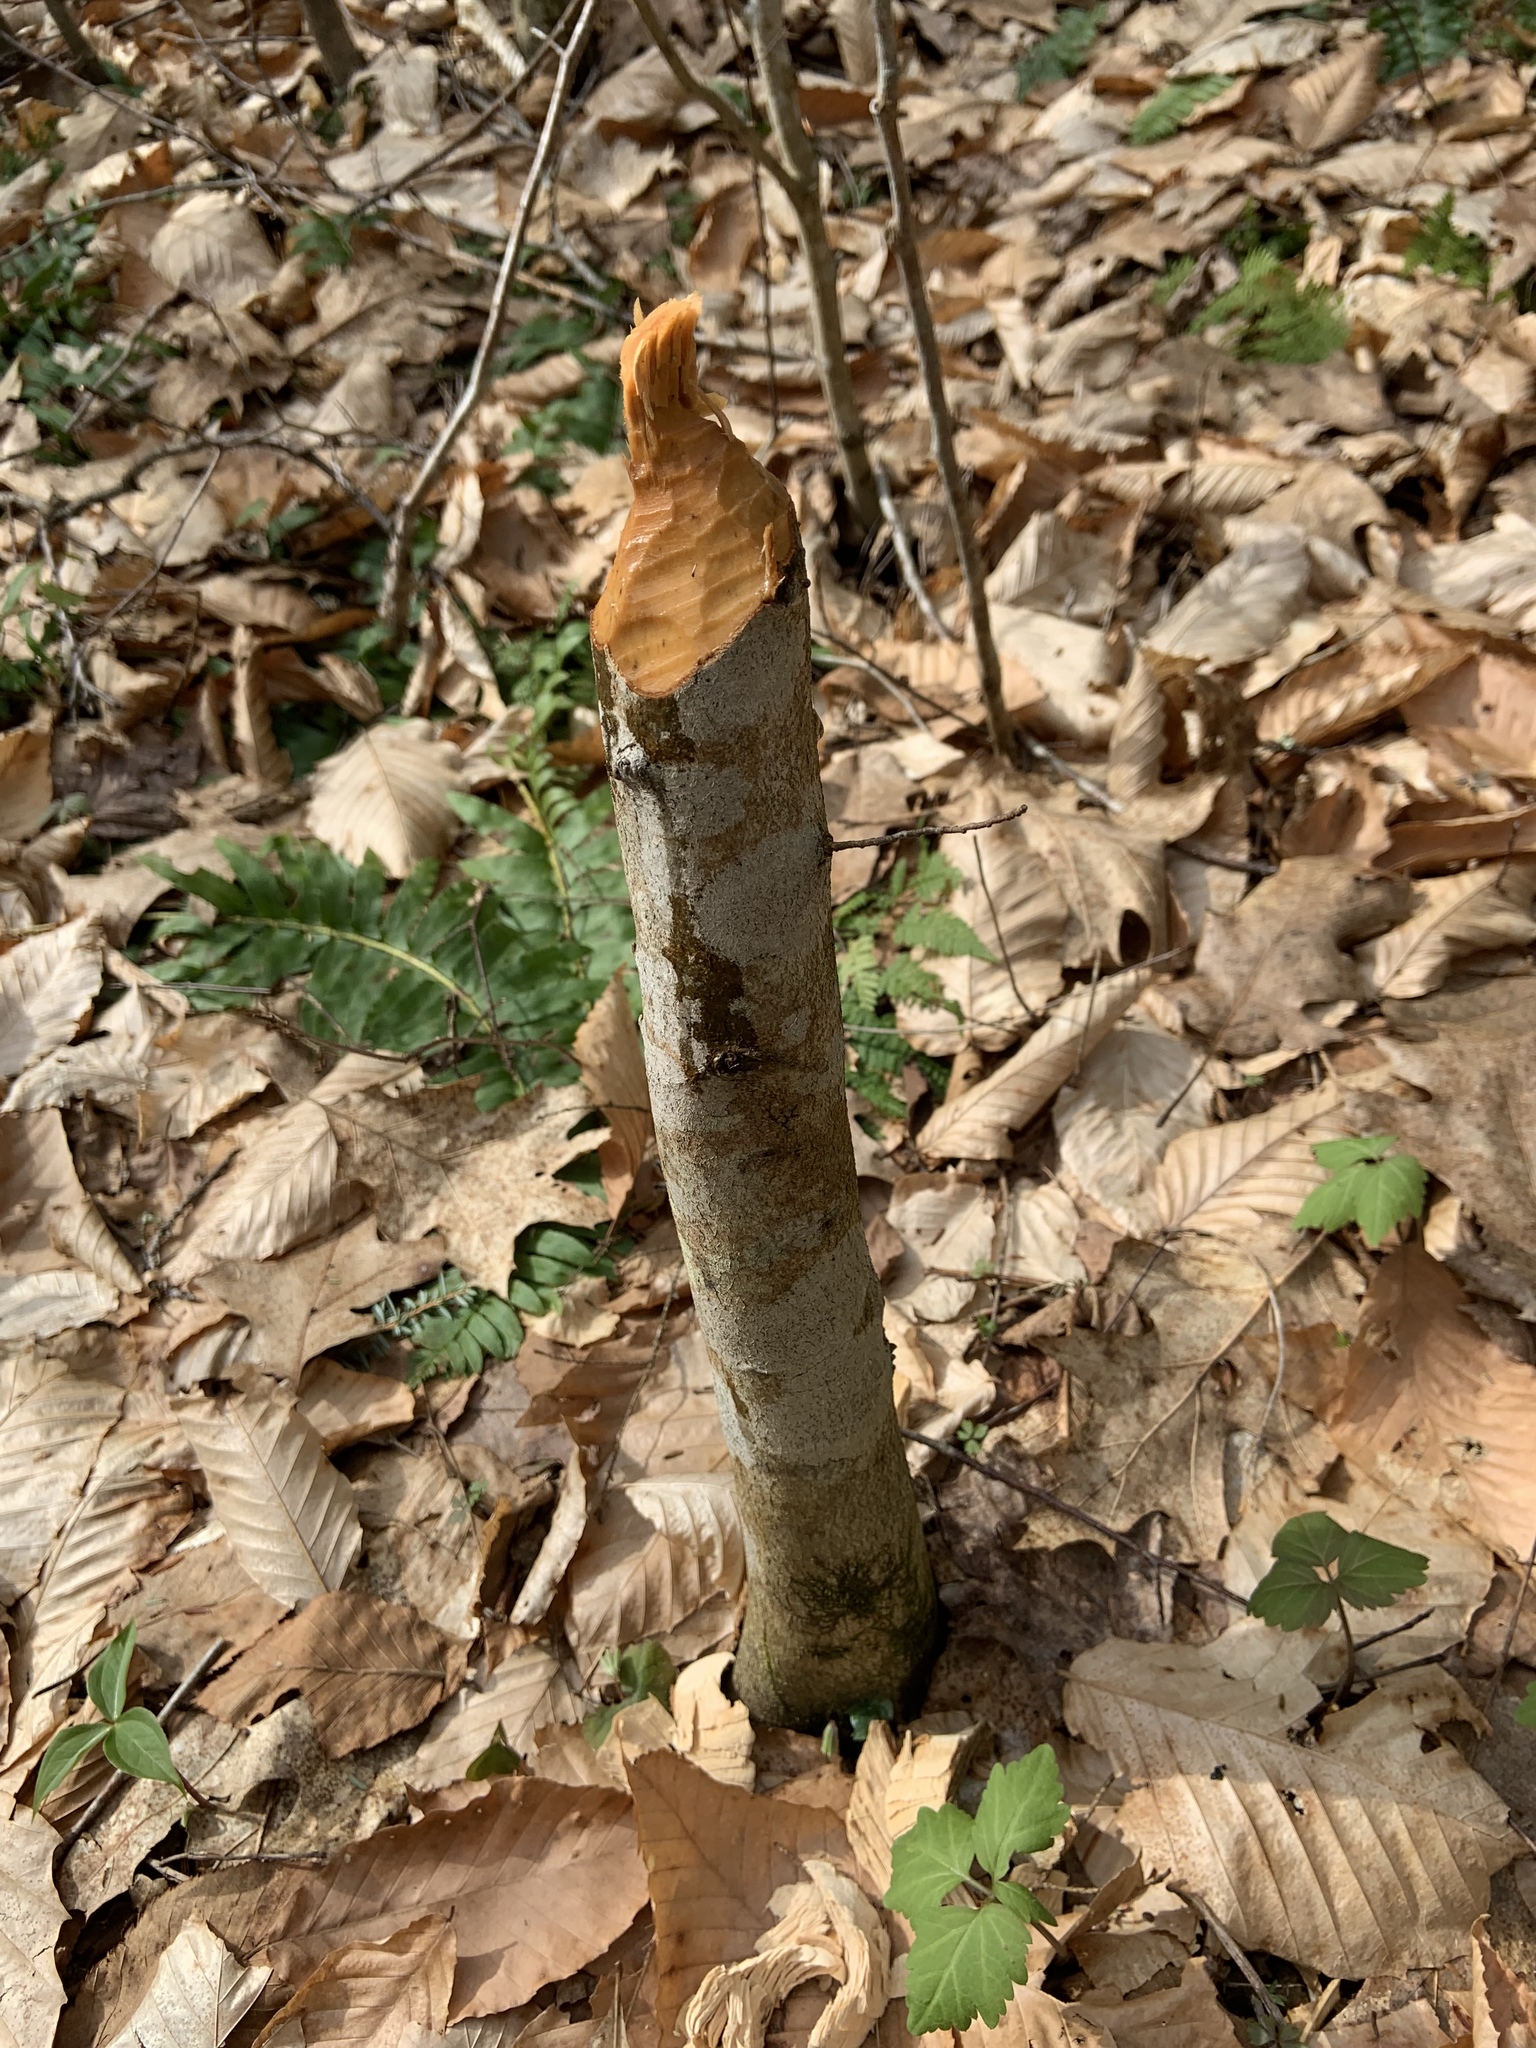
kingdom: Animalia
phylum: Chordata
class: Mammalia
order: Rodentia
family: Castoridae
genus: Castor
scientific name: Castor canadensis
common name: American beaver
